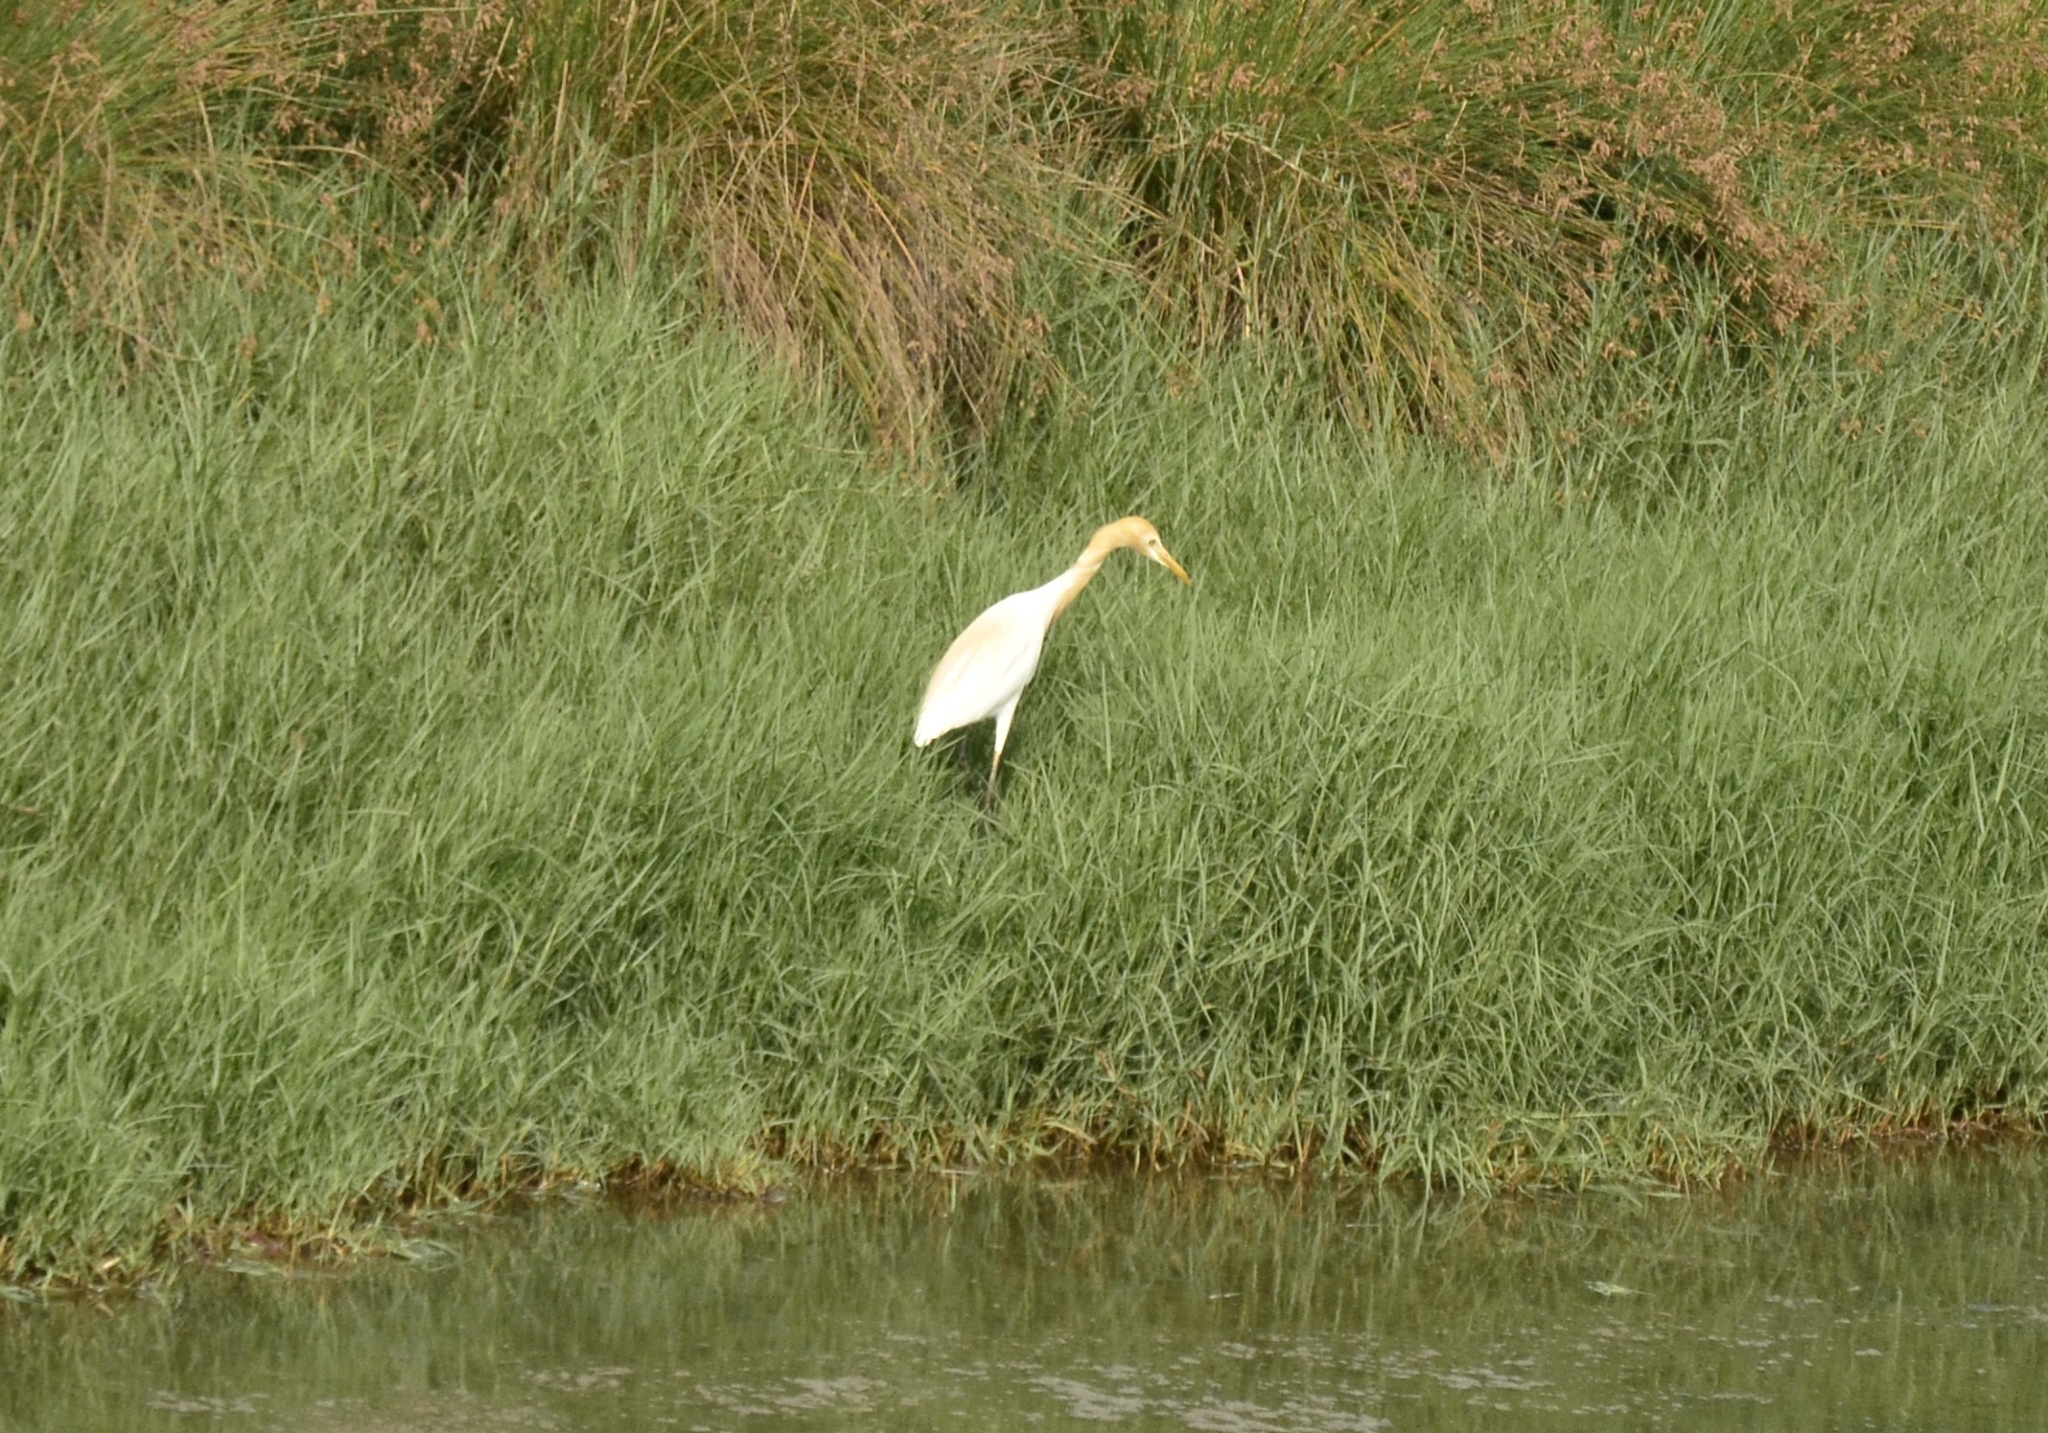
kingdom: Animalia
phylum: Chordata
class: Aves
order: Pelecaniformes
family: Ardeidae
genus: Bubulcus
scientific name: Bubulcus coromandus
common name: Eastern cattle egret
